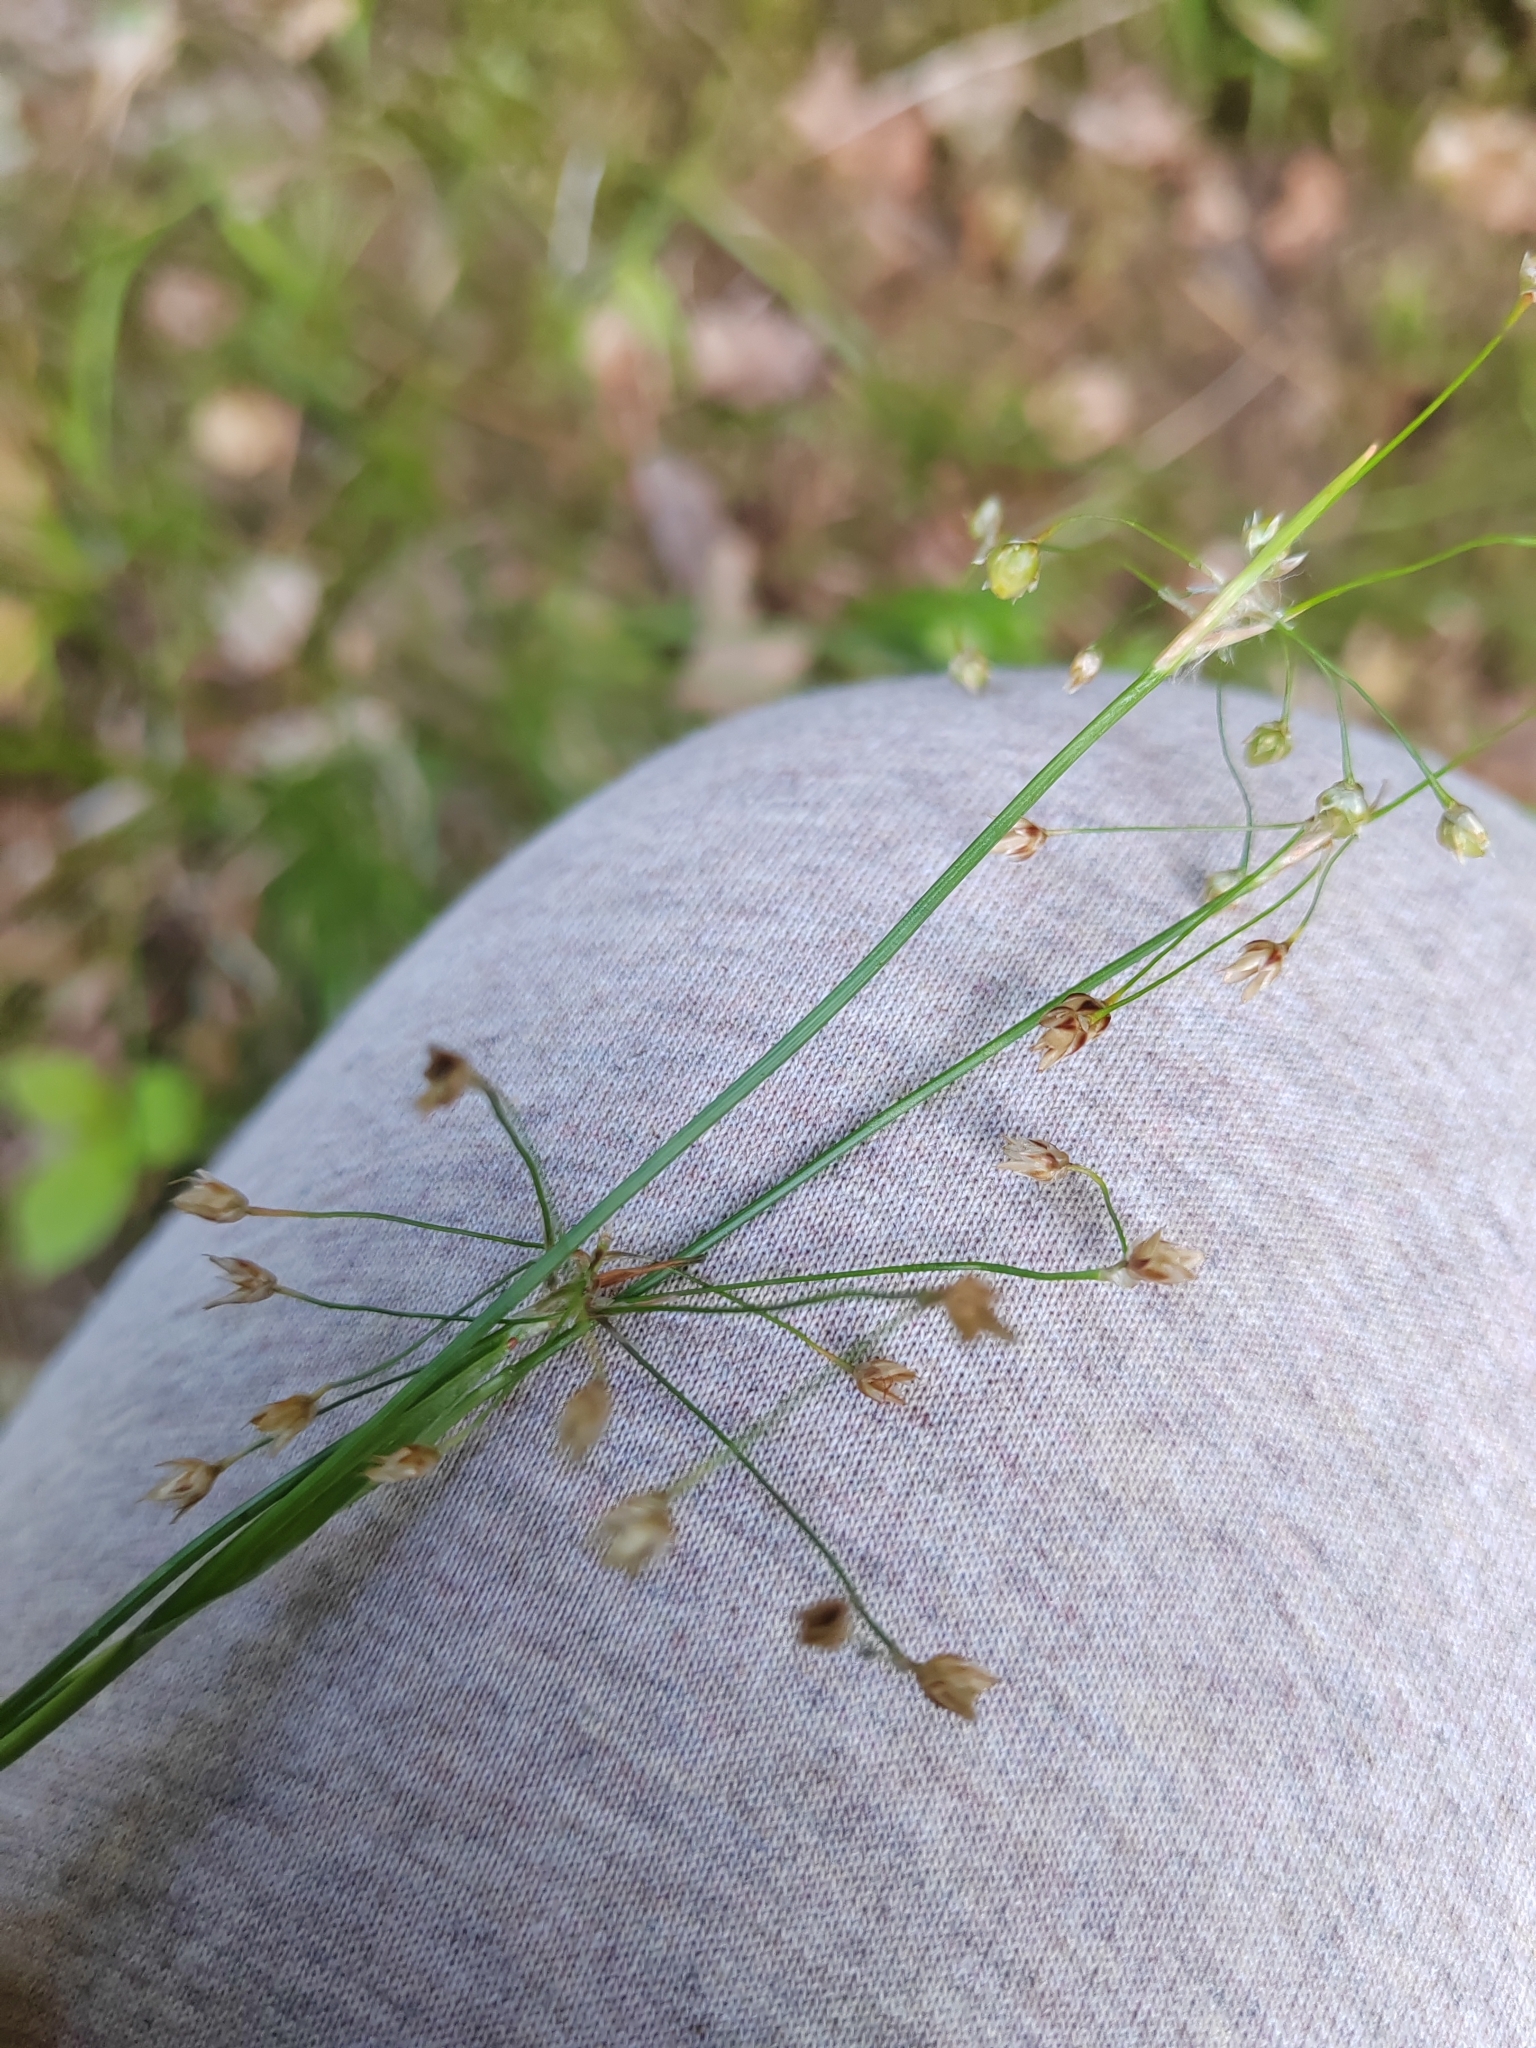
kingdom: Plantae
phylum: Tracheophyta
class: Liliopsida
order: Poales
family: Juncaceae
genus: Luzula
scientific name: Luzula pilosa
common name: Hairy wood-rush
